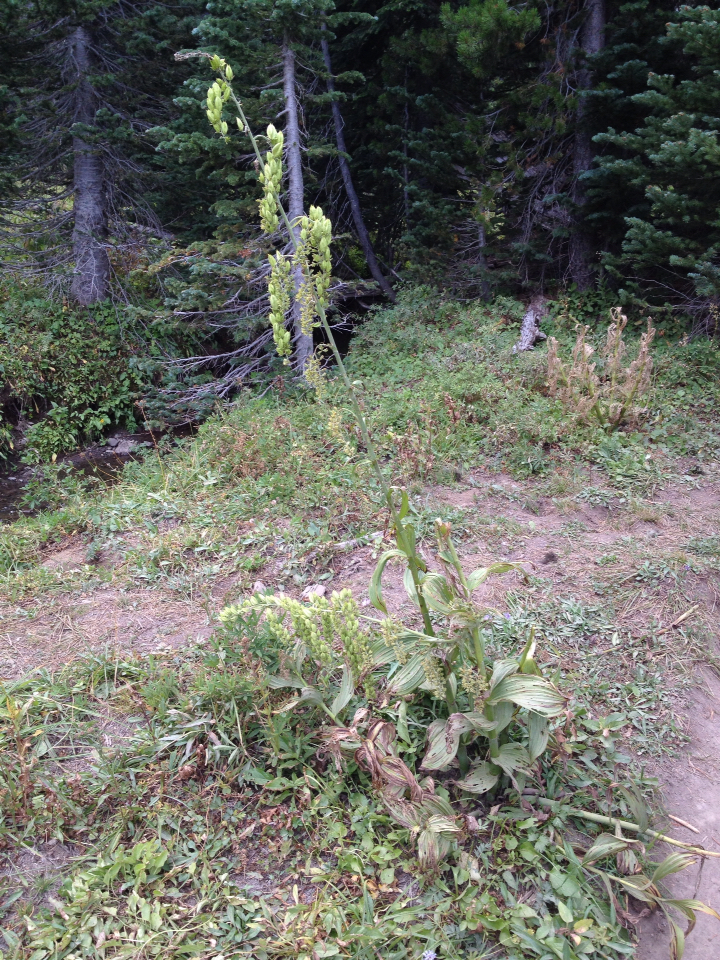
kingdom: Plantae
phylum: Tracheophyta
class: Liliopsida
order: Liliales
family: Melanthiaceae
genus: Veratrum
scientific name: Veratrum viride
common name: American false hellebore
